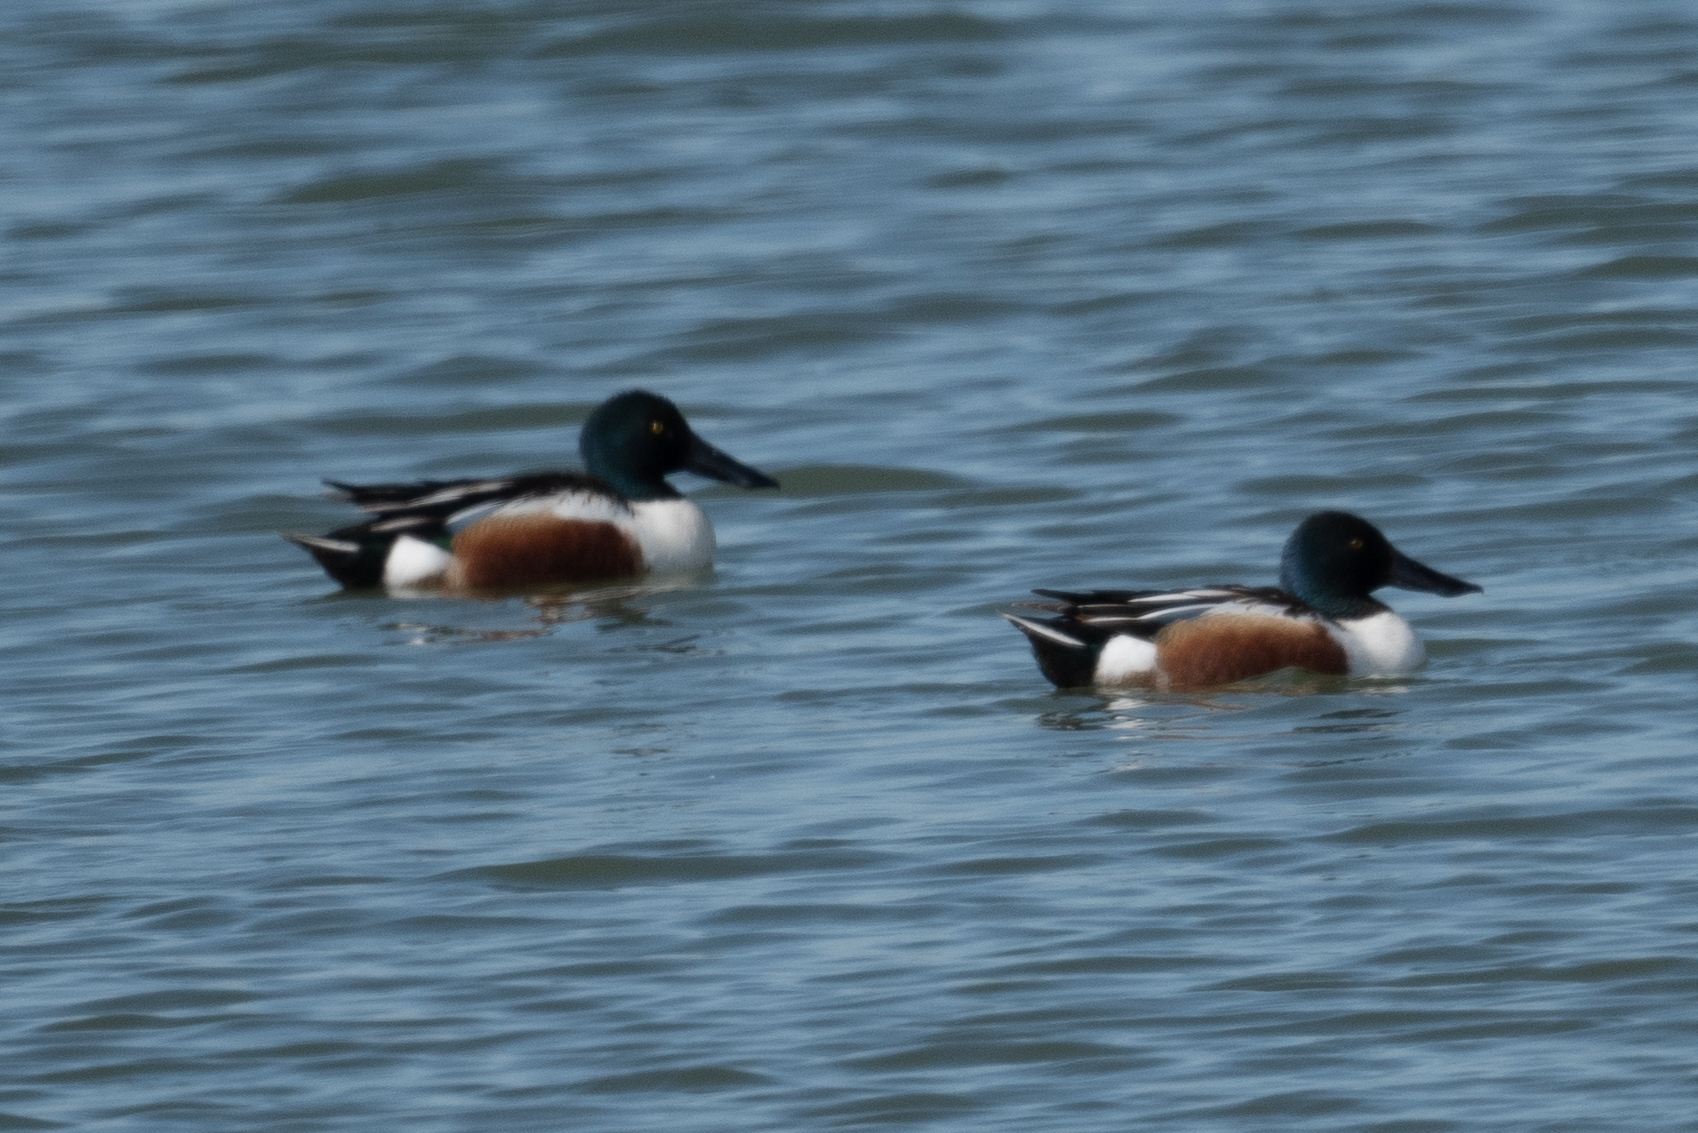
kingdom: Animalia
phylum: Chordata
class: Aves
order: Anseriformes
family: Anatidae
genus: Spatula
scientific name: Spatula clypeata
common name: Northern shoveler
